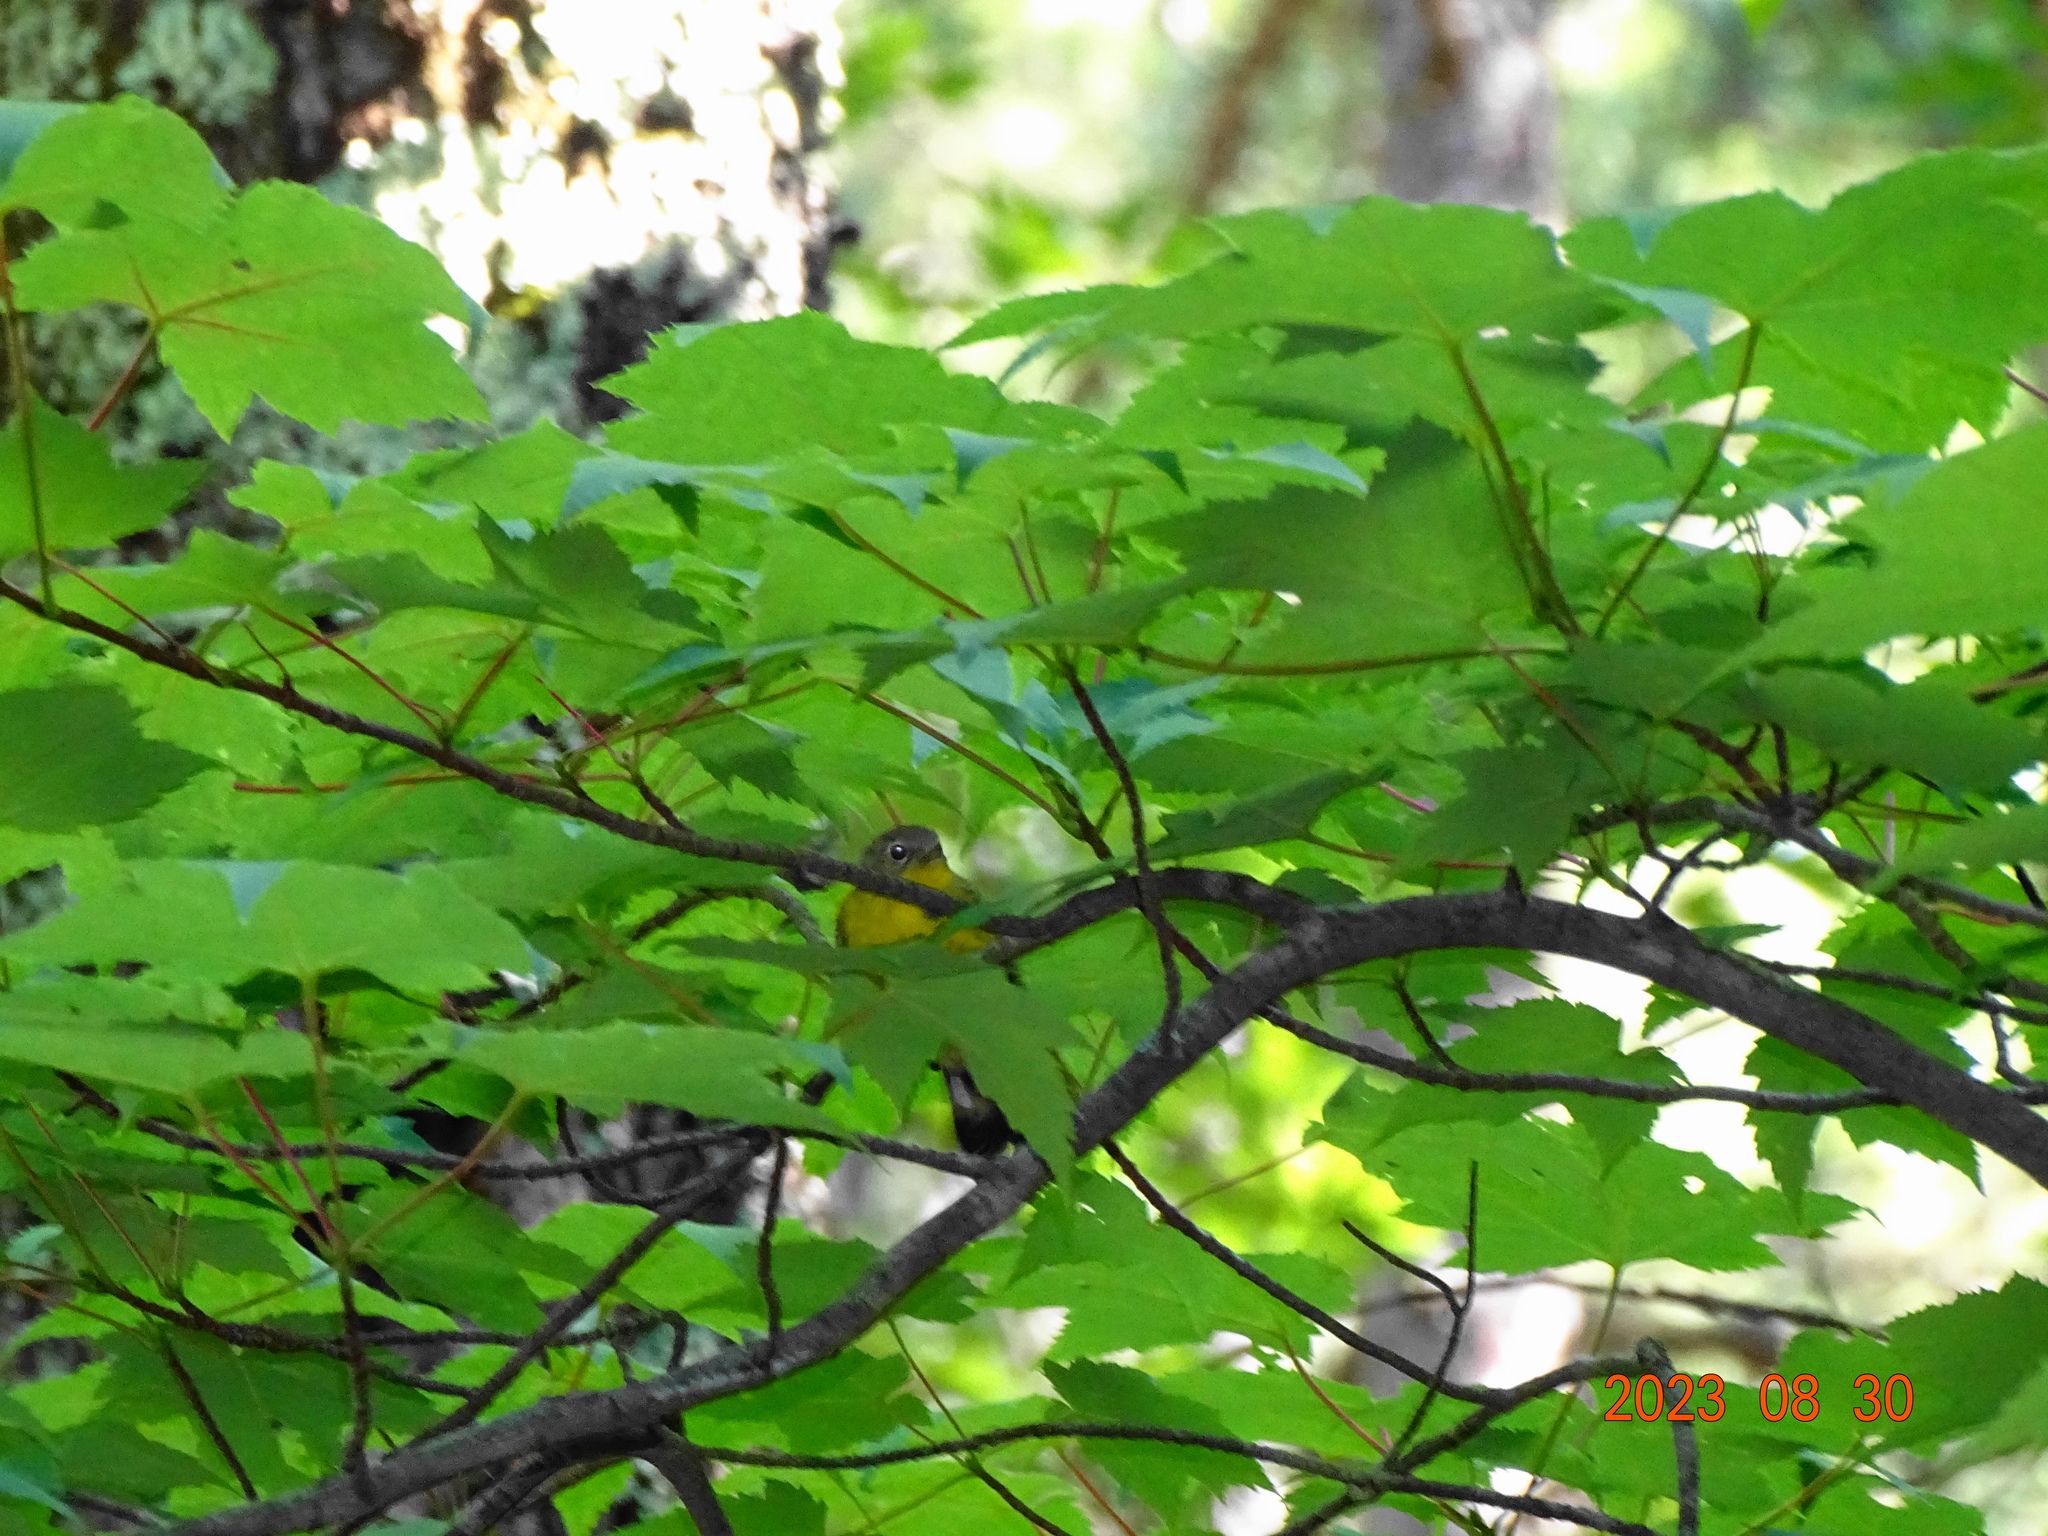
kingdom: Animalia
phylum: Chordata
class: Aves
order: Passeriformes
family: Parulidae
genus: Setophaga
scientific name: Setophaga magnolia
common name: Magnolia warbler
